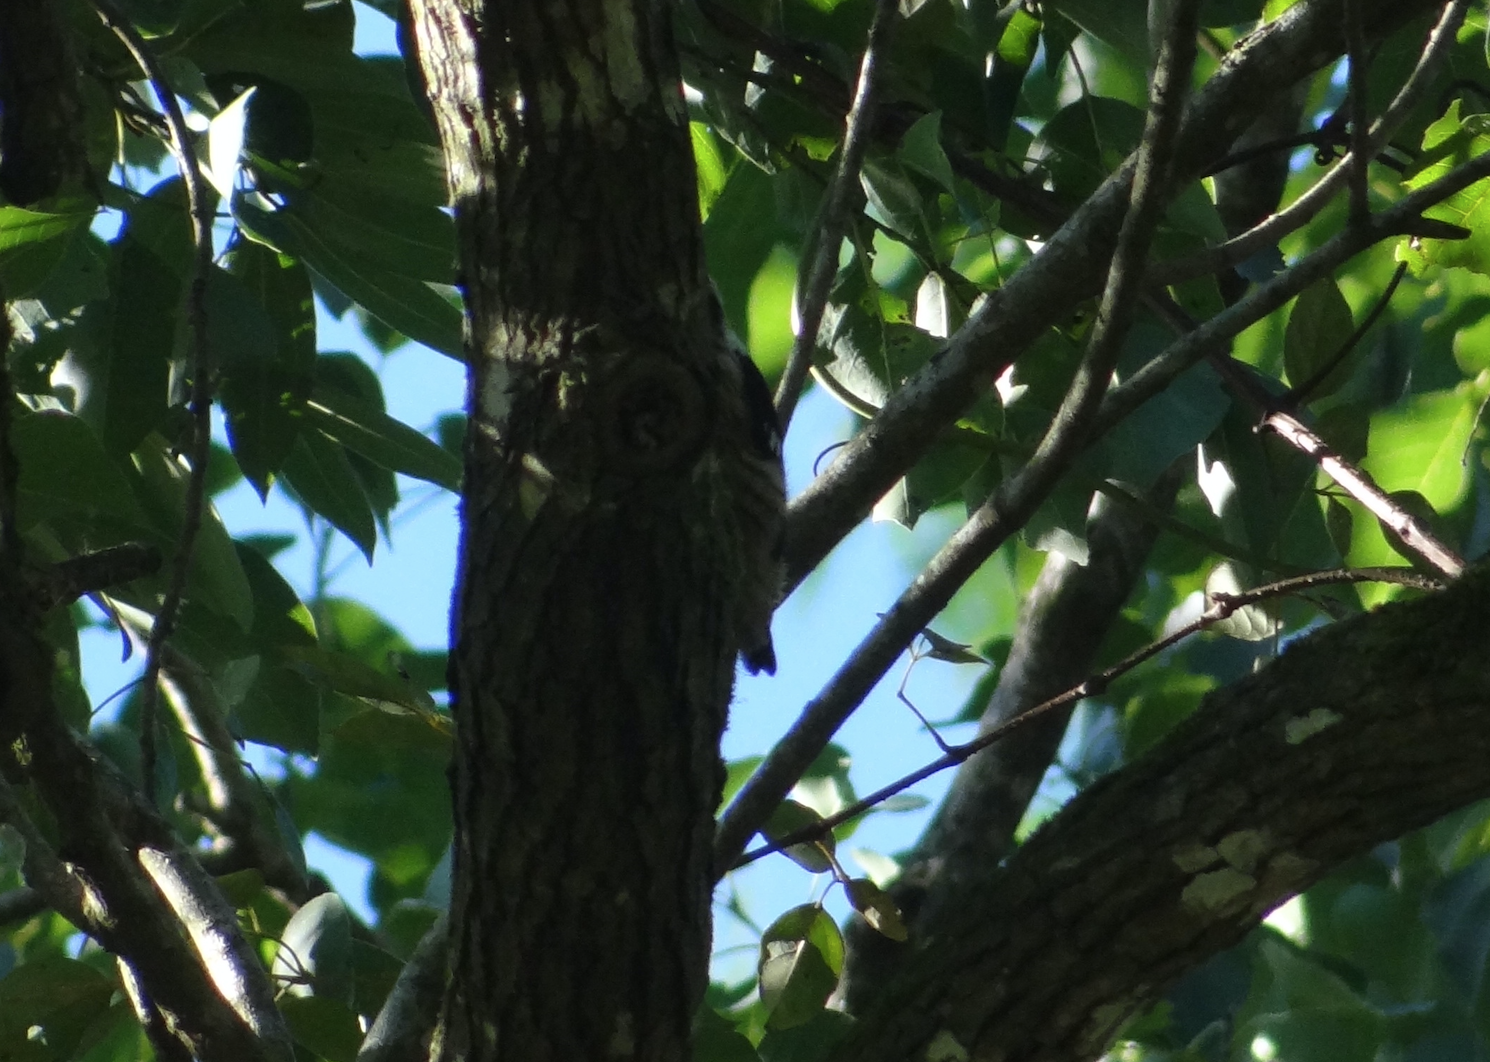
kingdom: Animalia
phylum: Chordata
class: Aves
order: Piciformes
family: Picidae
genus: Yungipicus
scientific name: Yungipicus canicapillus
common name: Grey-capped pygmy woodpecker
